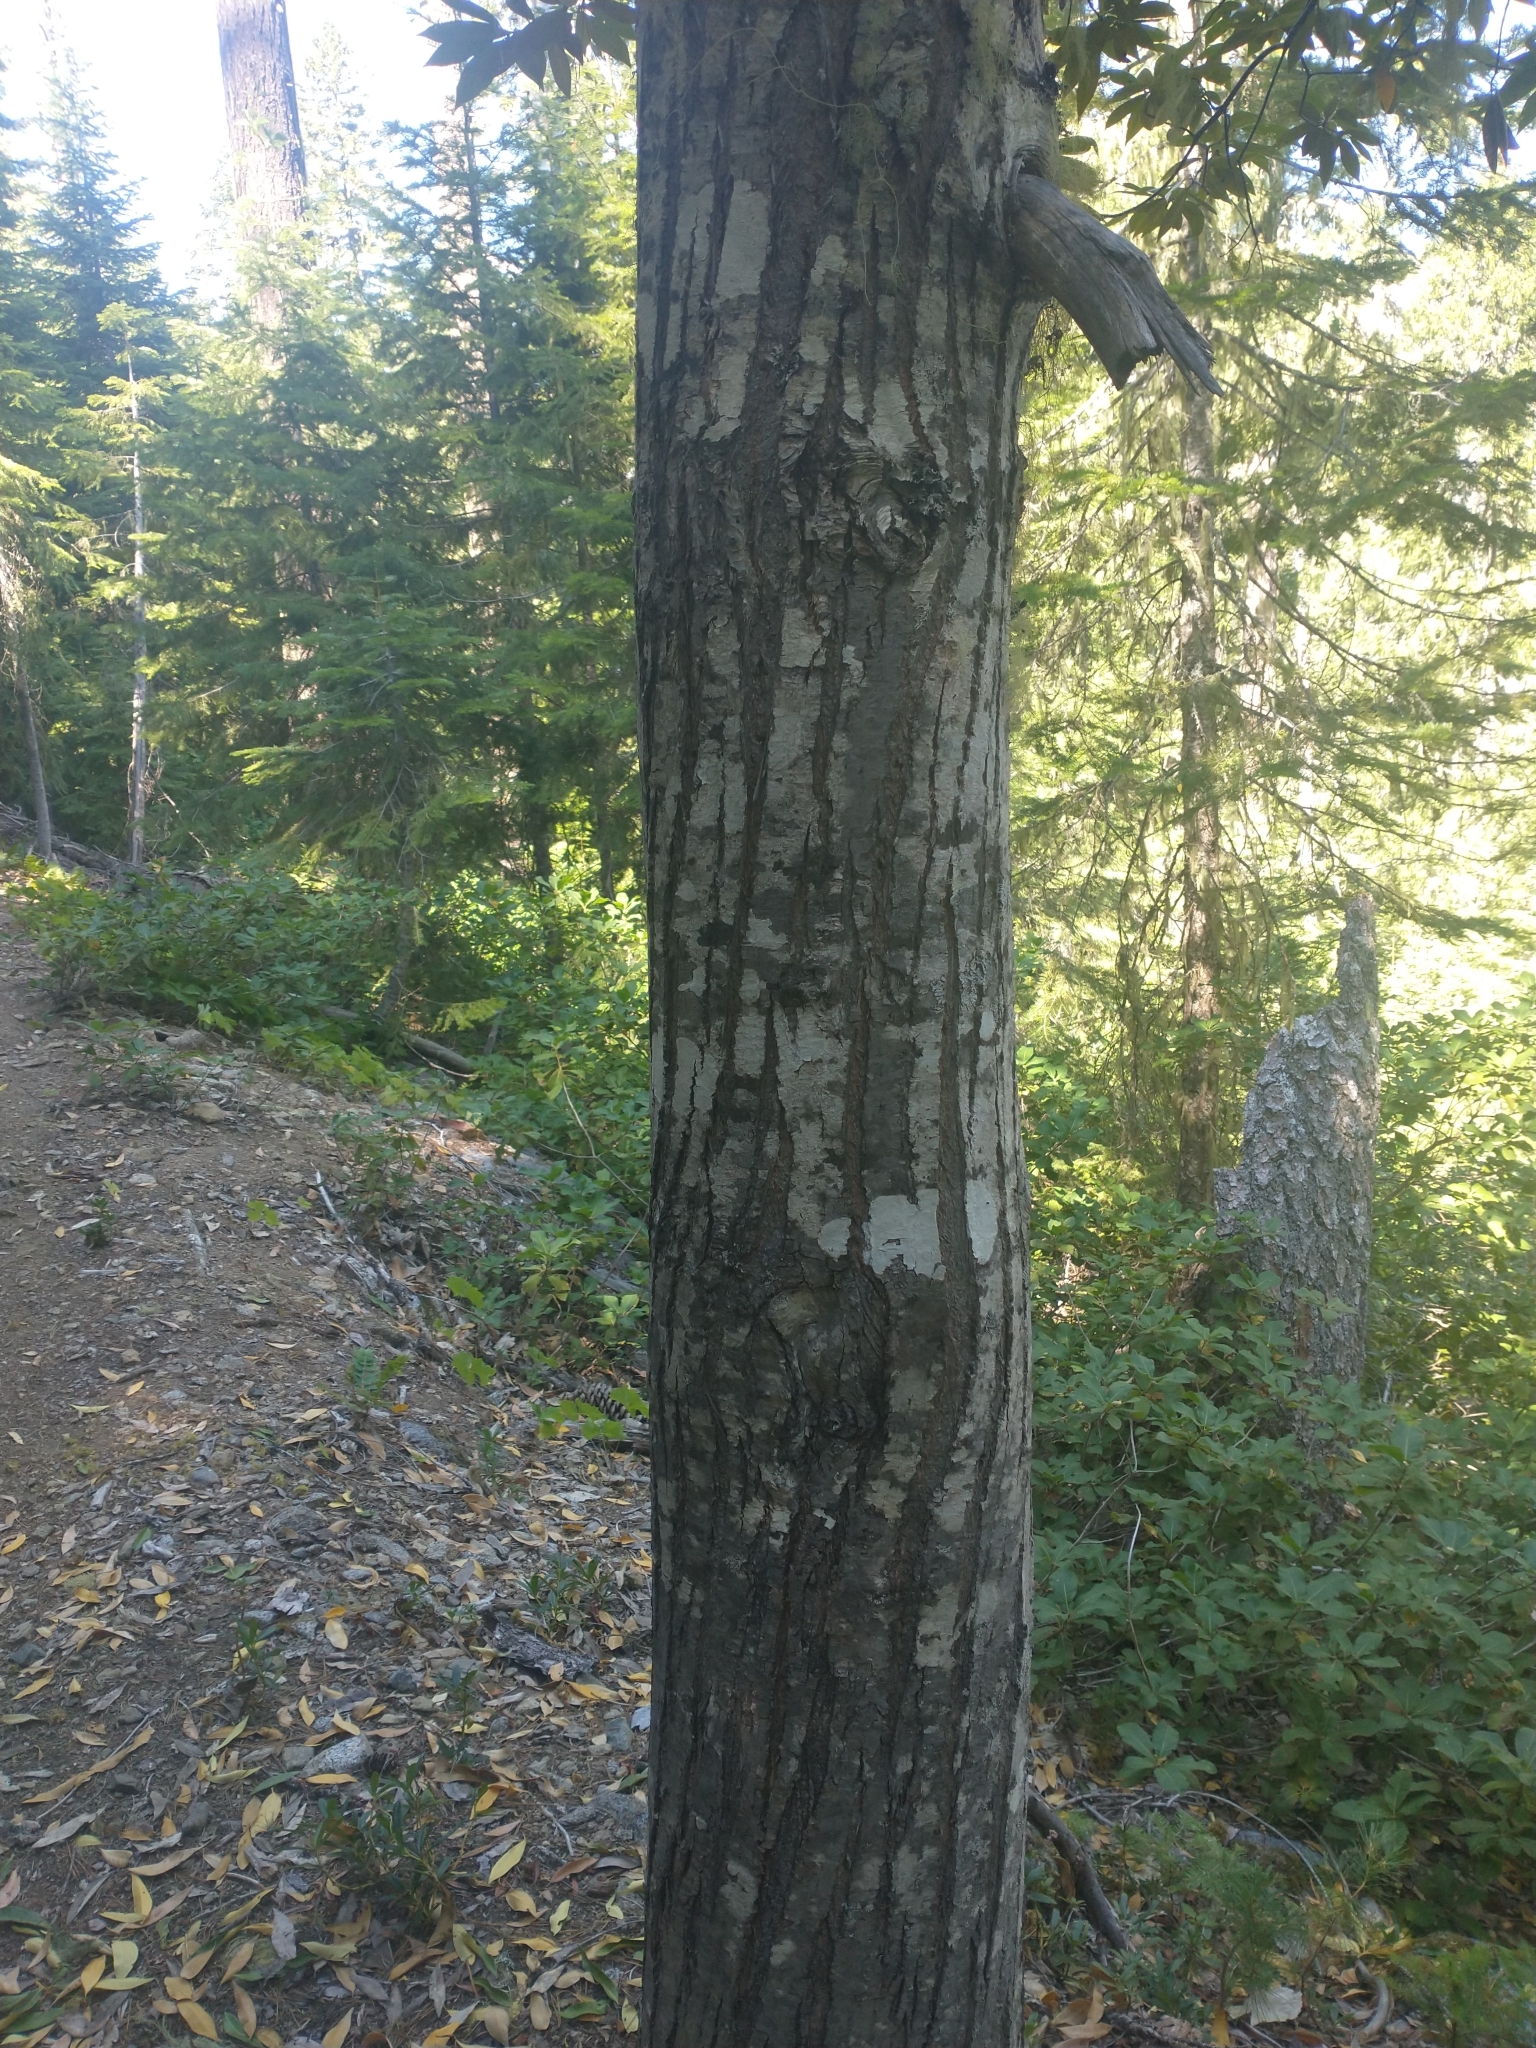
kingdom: Plantae
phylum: Tracheophyta
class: Magnoliopsida
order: Fagales
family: Fagaceae
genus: Chrysolepis
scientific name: Chrysolepis chrysophylla
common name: Giant chinquapin
